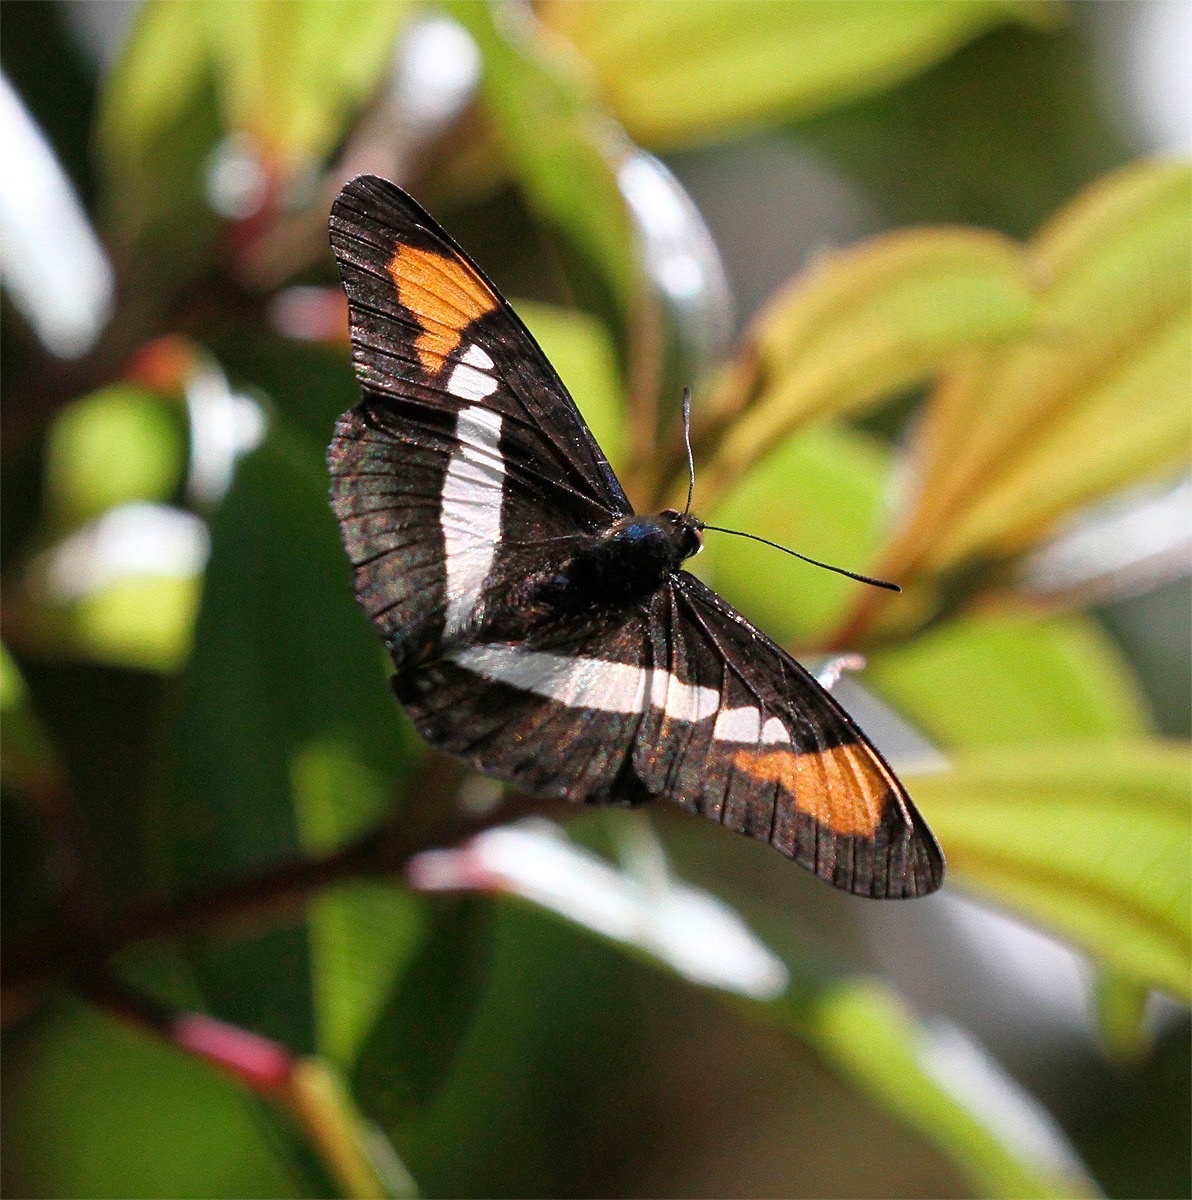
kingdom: Animalia
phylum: Arthropoda
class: Insecta
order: Lepidoptera
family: Nymphalidae
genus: Limenitis
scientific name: Limenitis serpa
